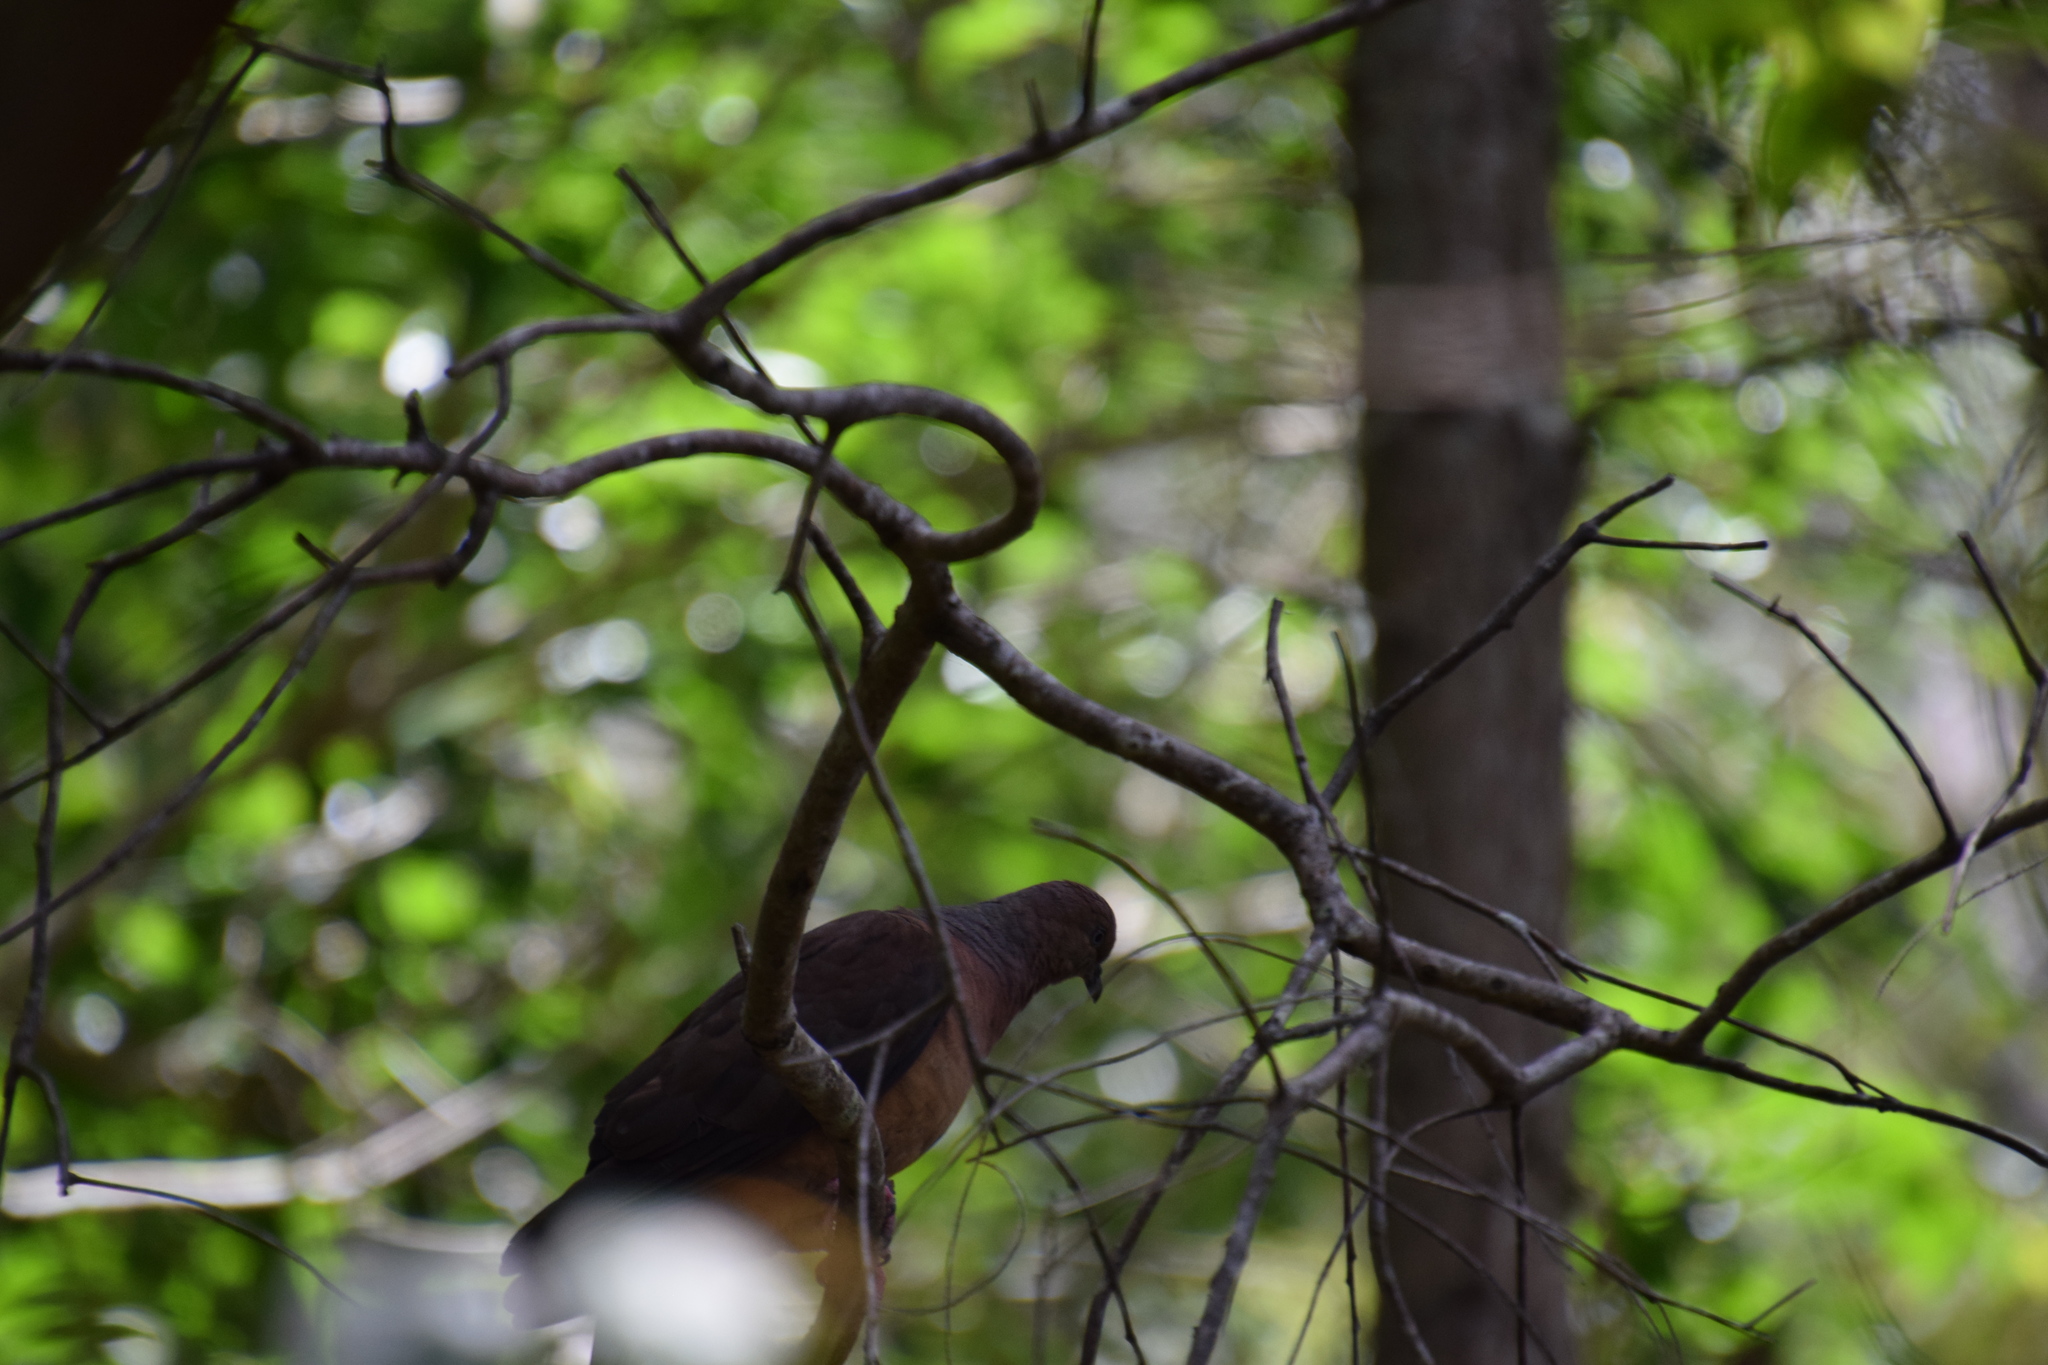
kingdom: Animalia
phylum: Chordata
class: Aves
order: Columbiformes
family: Columbidae
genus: Macropygia
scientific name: Macropygia phasianella
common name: Brown cuckoo-dove
